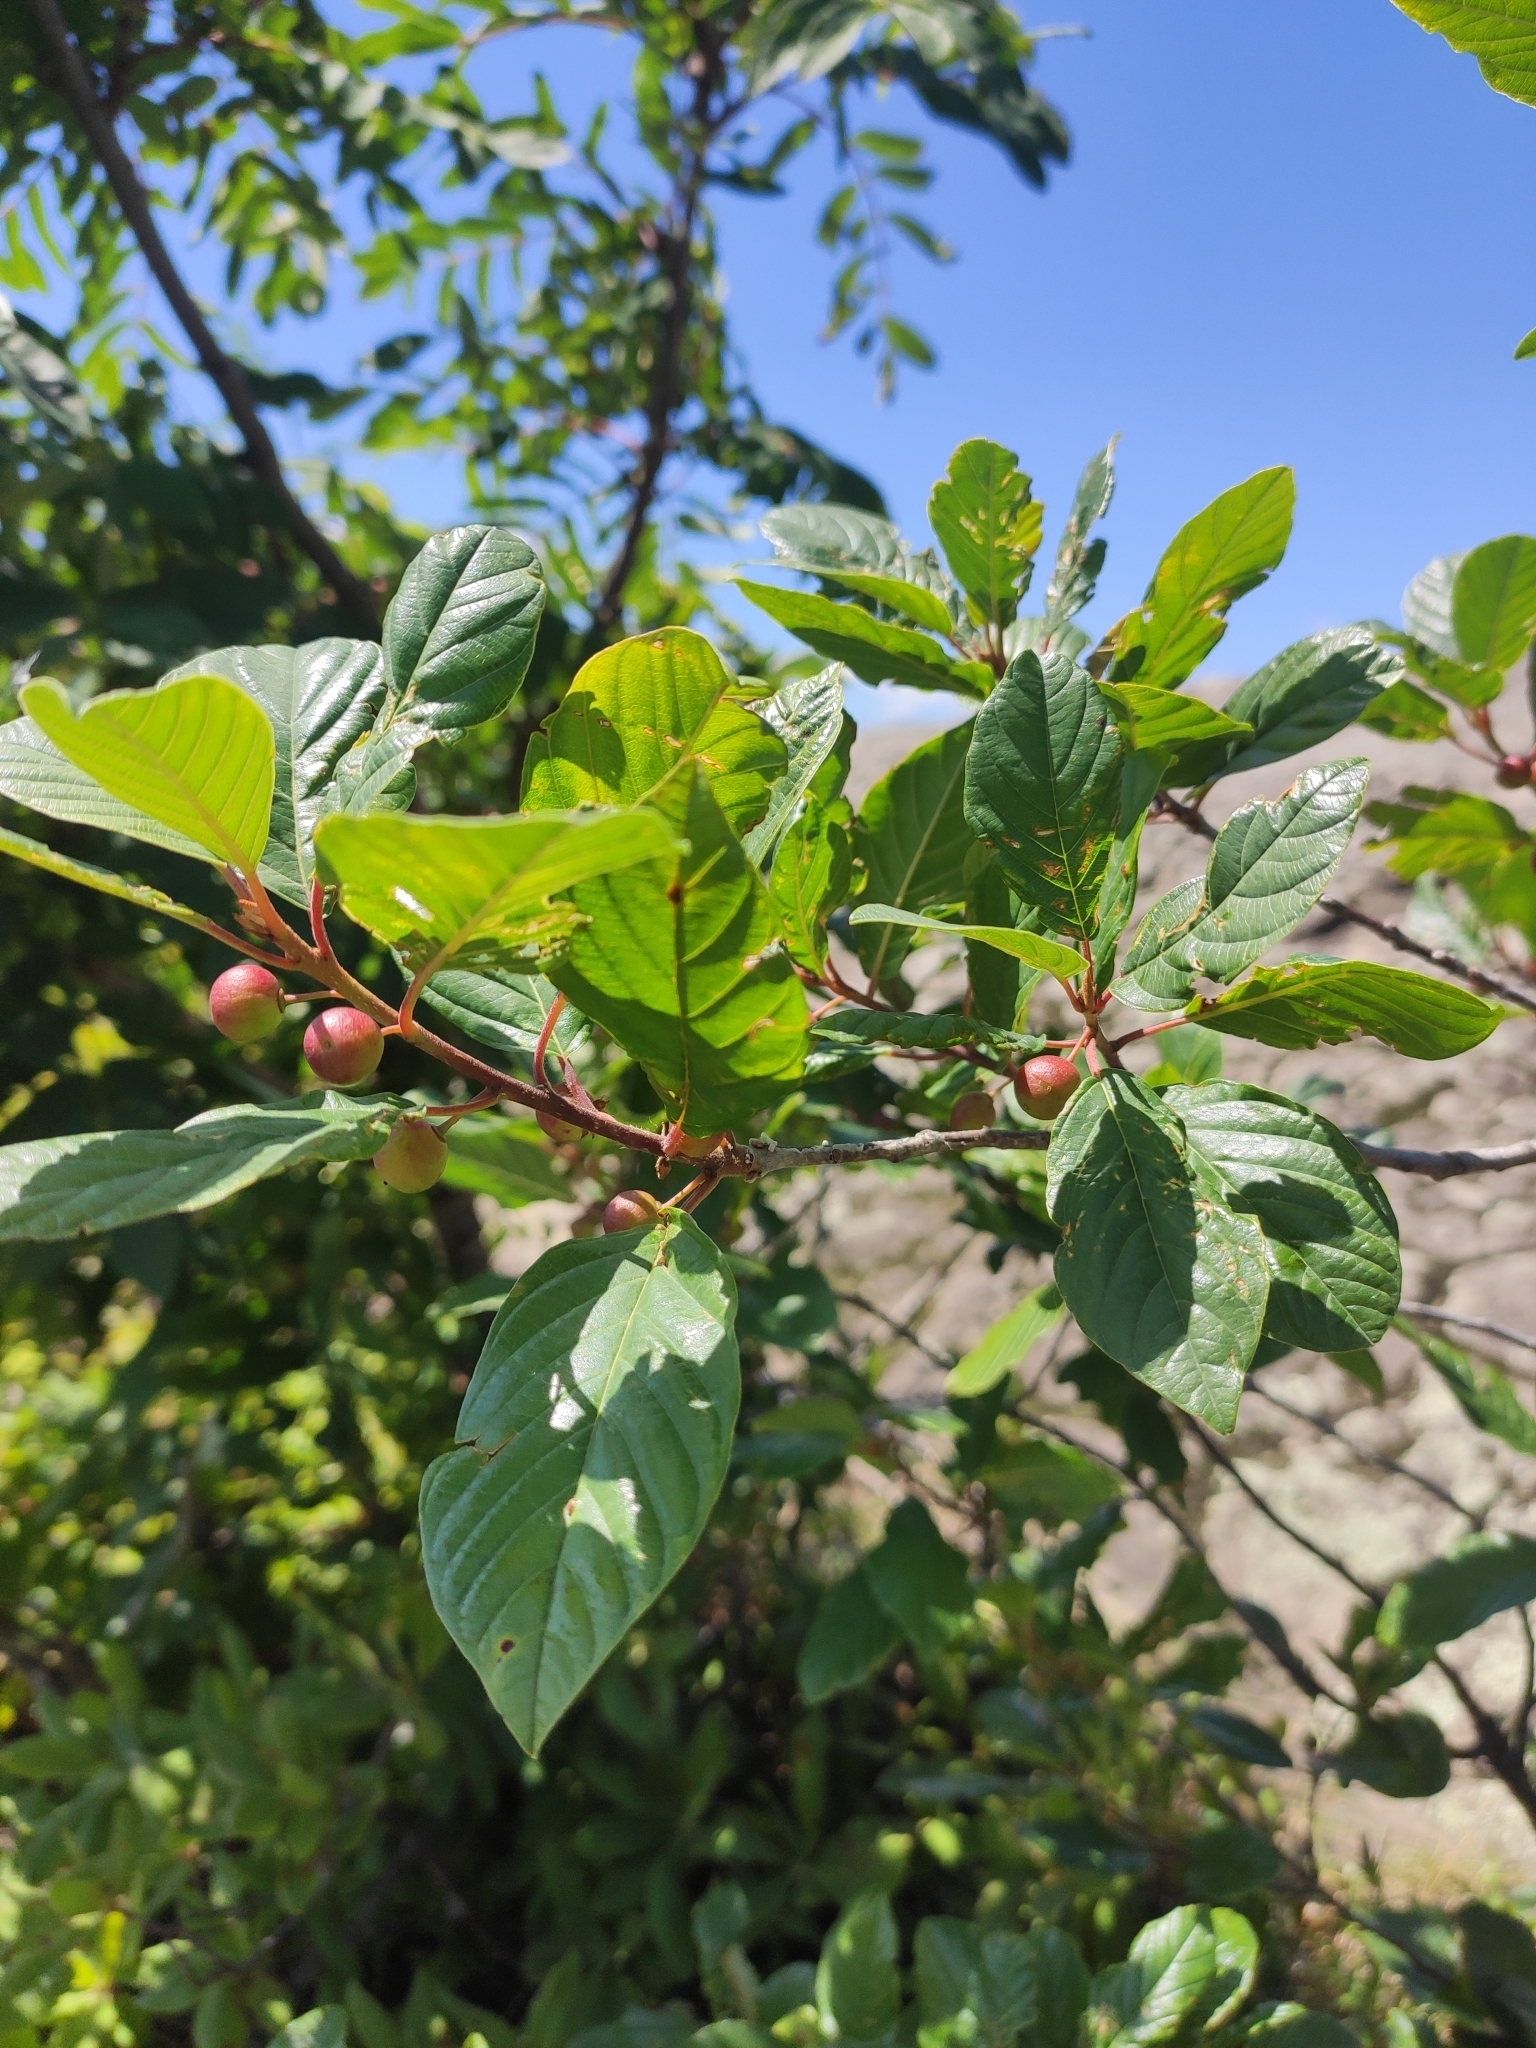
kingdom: Plantae
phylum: Tracheophyta
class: Magnoliopsida
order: Rosales
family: Rhamnaceae
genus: Frangula
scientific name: Frangula alnus
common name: Alder buckthorn
